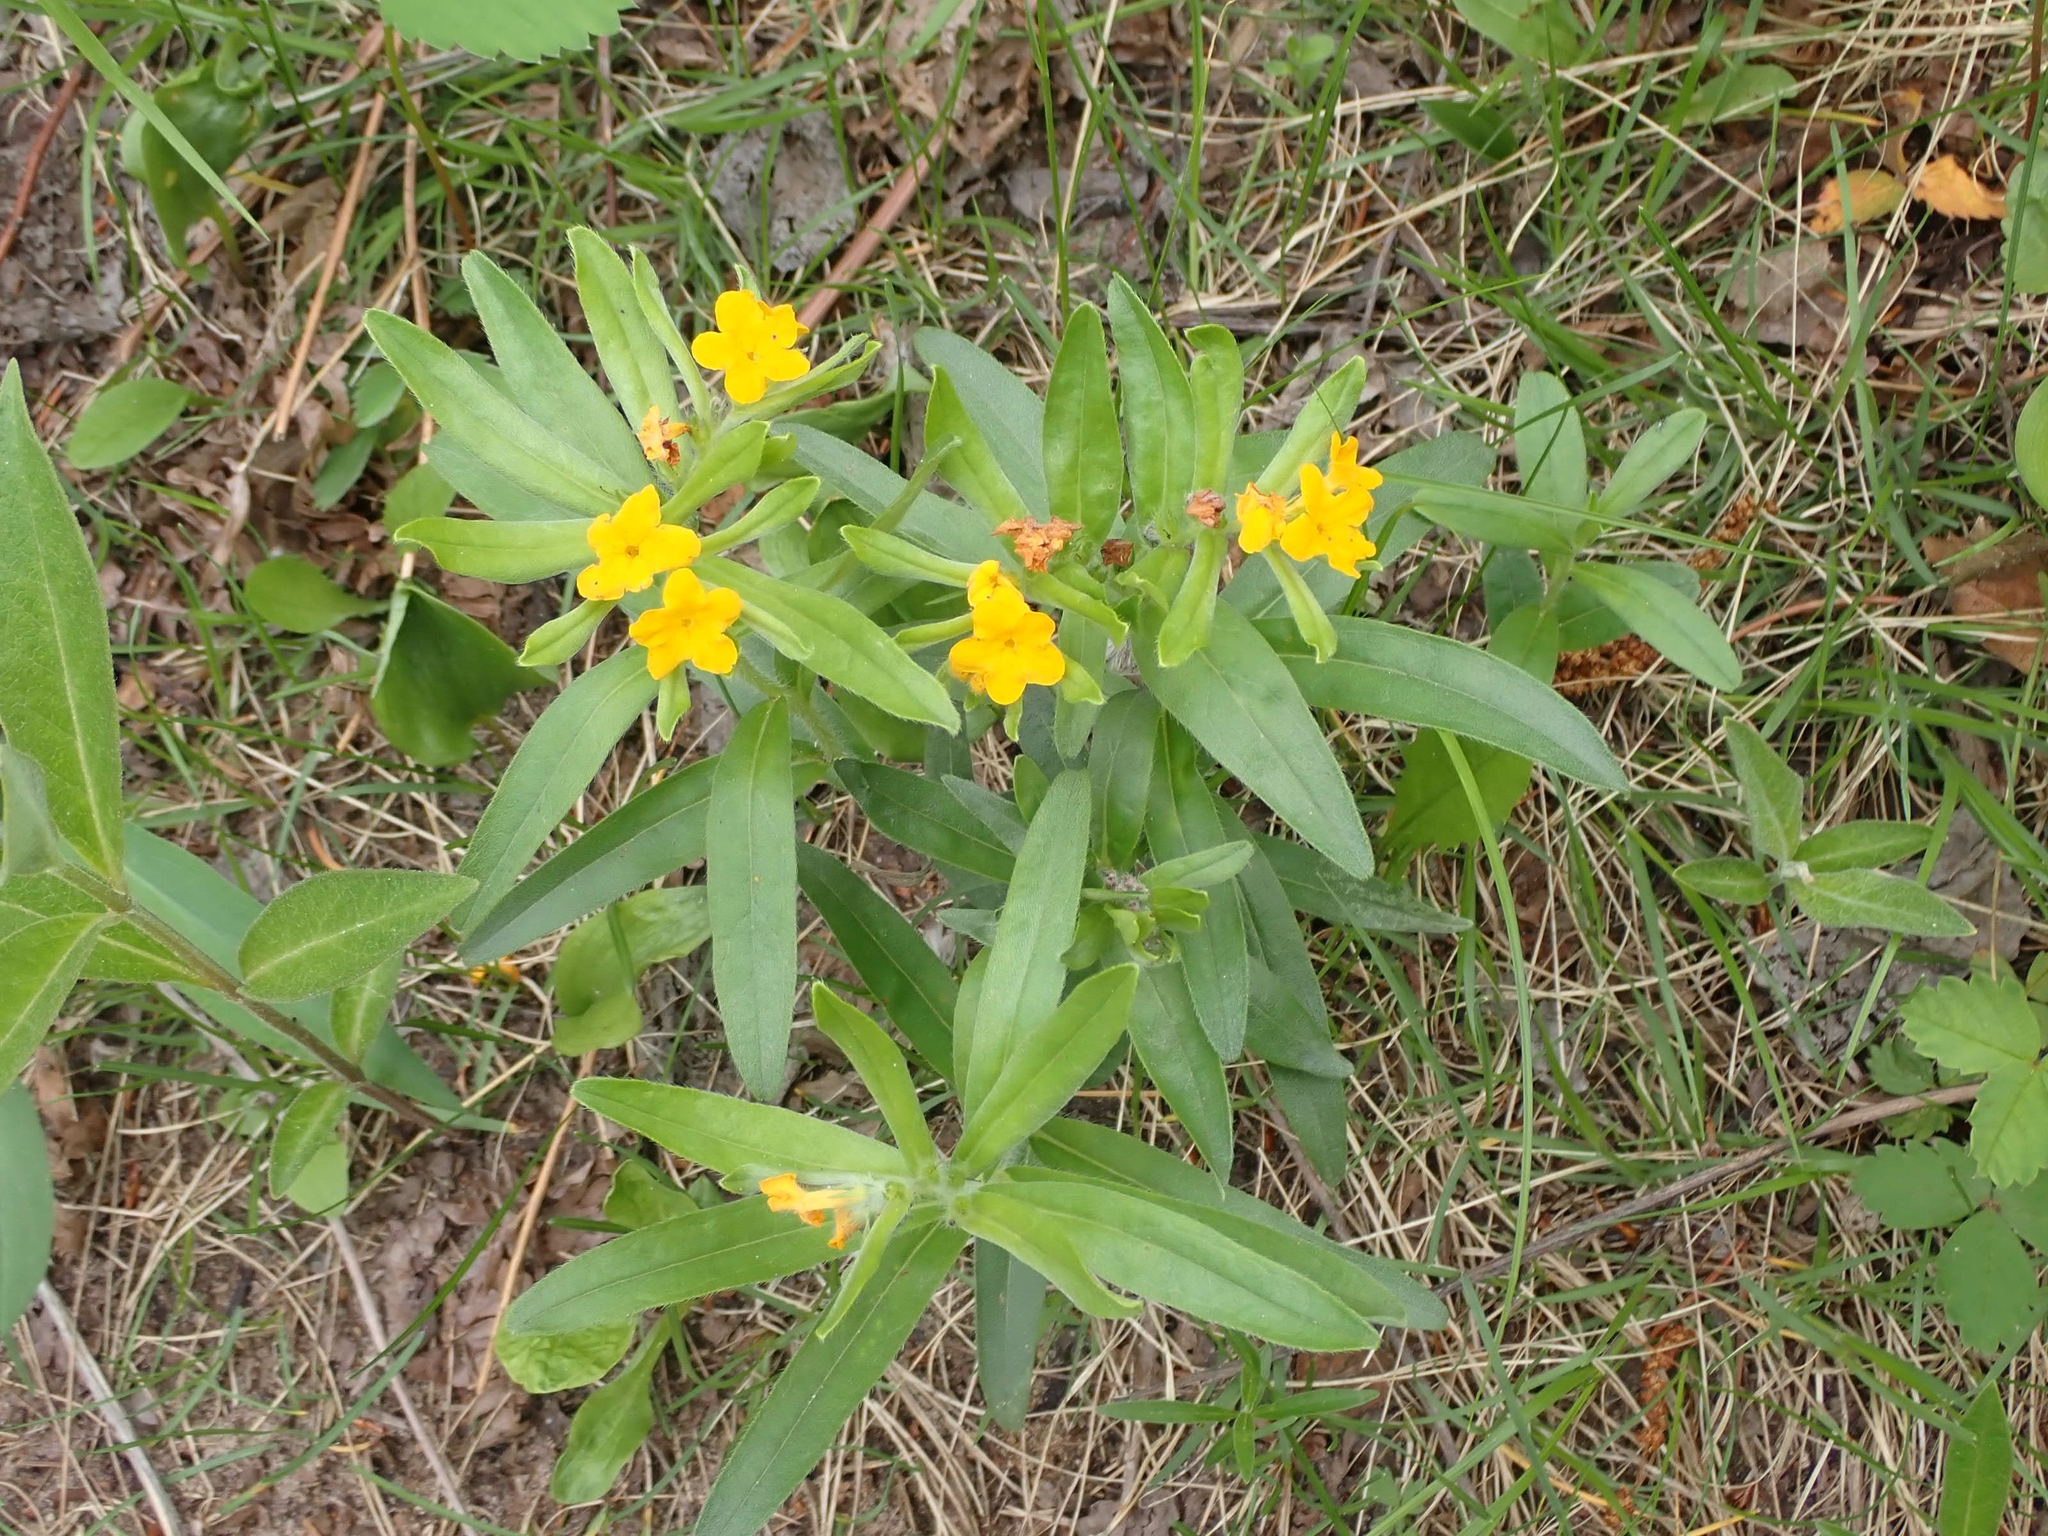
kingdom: Plantae
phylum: Tracheophyta
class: Magnoliopsida
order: Boraginales
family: Boraginaceae
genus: Lithospermum
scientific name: Lithospermum canescens
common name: Hoary puccoon
